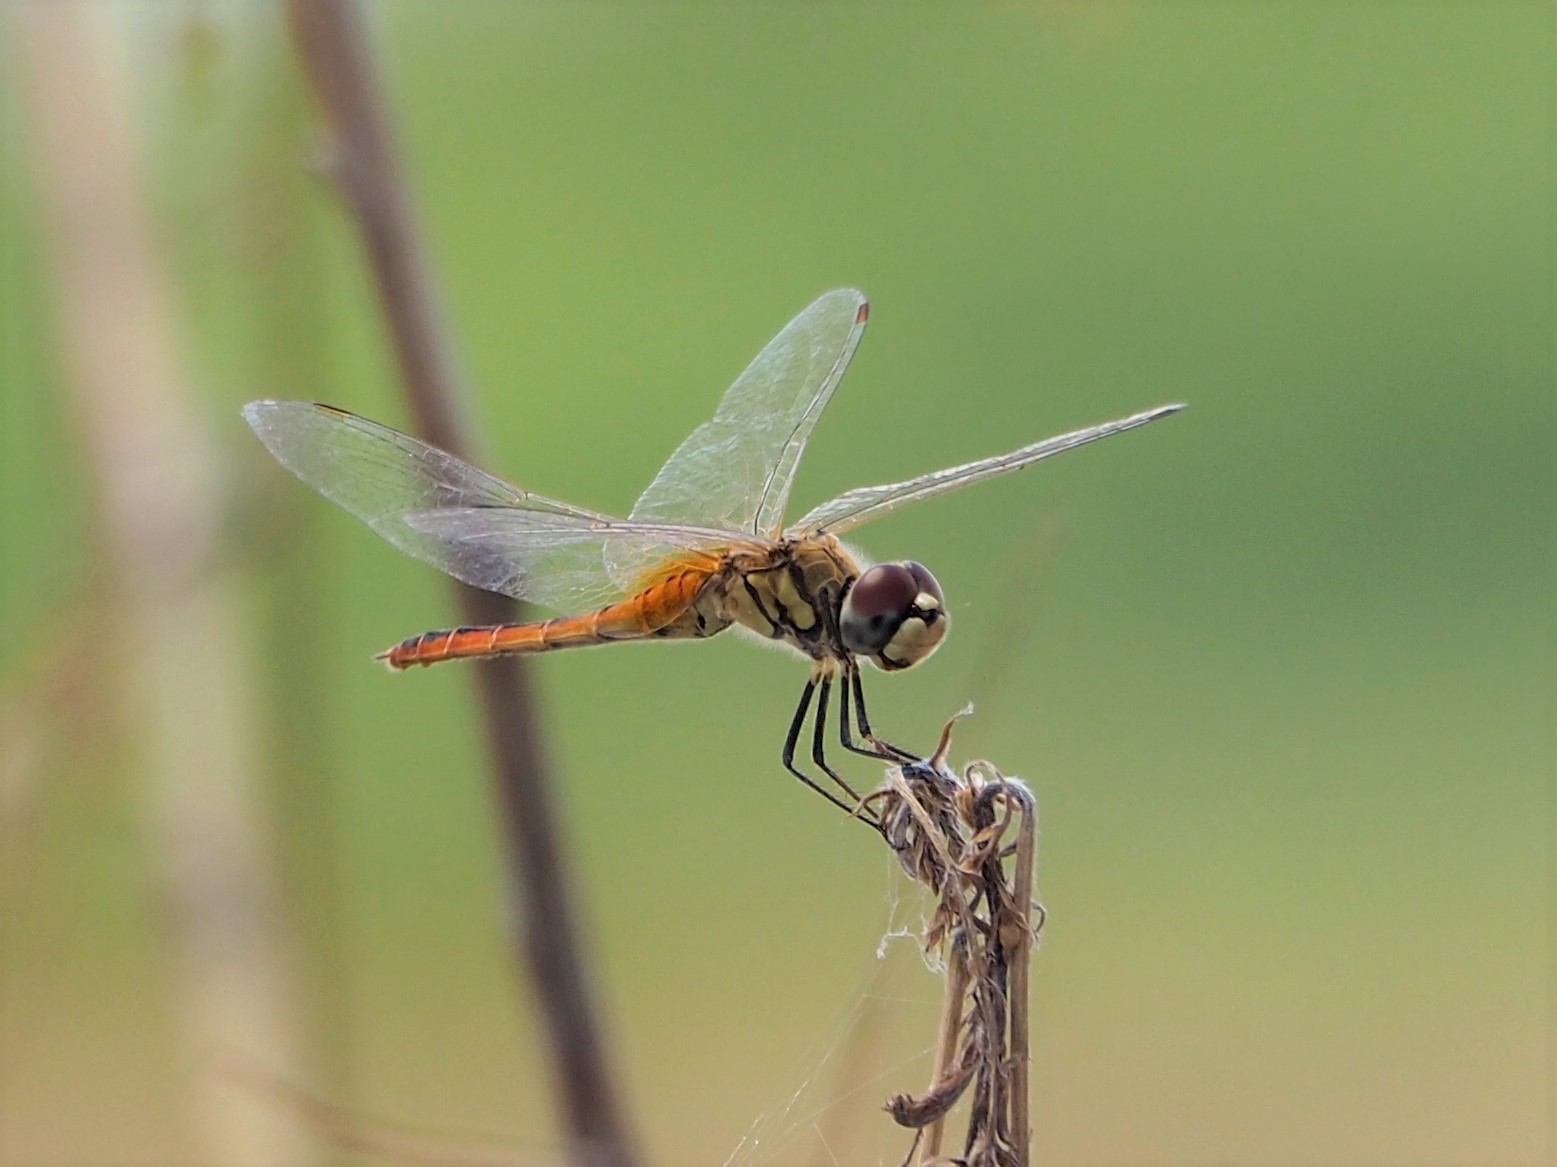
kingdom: Animalia
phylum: Arthropoda
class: Insecta
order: Odonata
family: Libellulidae
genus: Macrodiplax
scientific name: Macrodiplax cora
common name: Coastal glider
